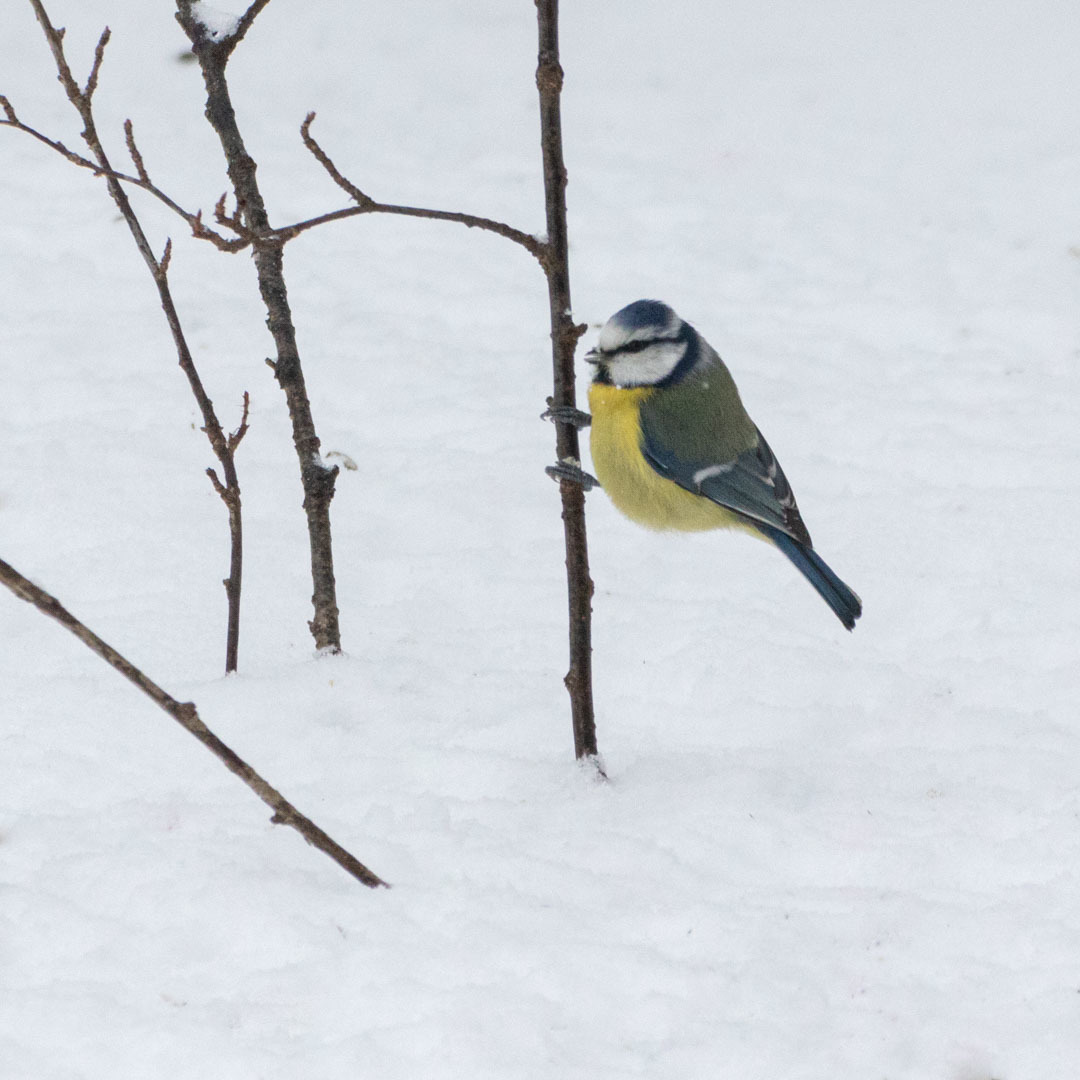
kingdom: Animalia
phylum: Chordata
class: Aves
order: Passeriformes
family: Paridae
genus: Cyanistes
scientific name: Cyanistes caeruleus
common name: Eurasian blue tit
